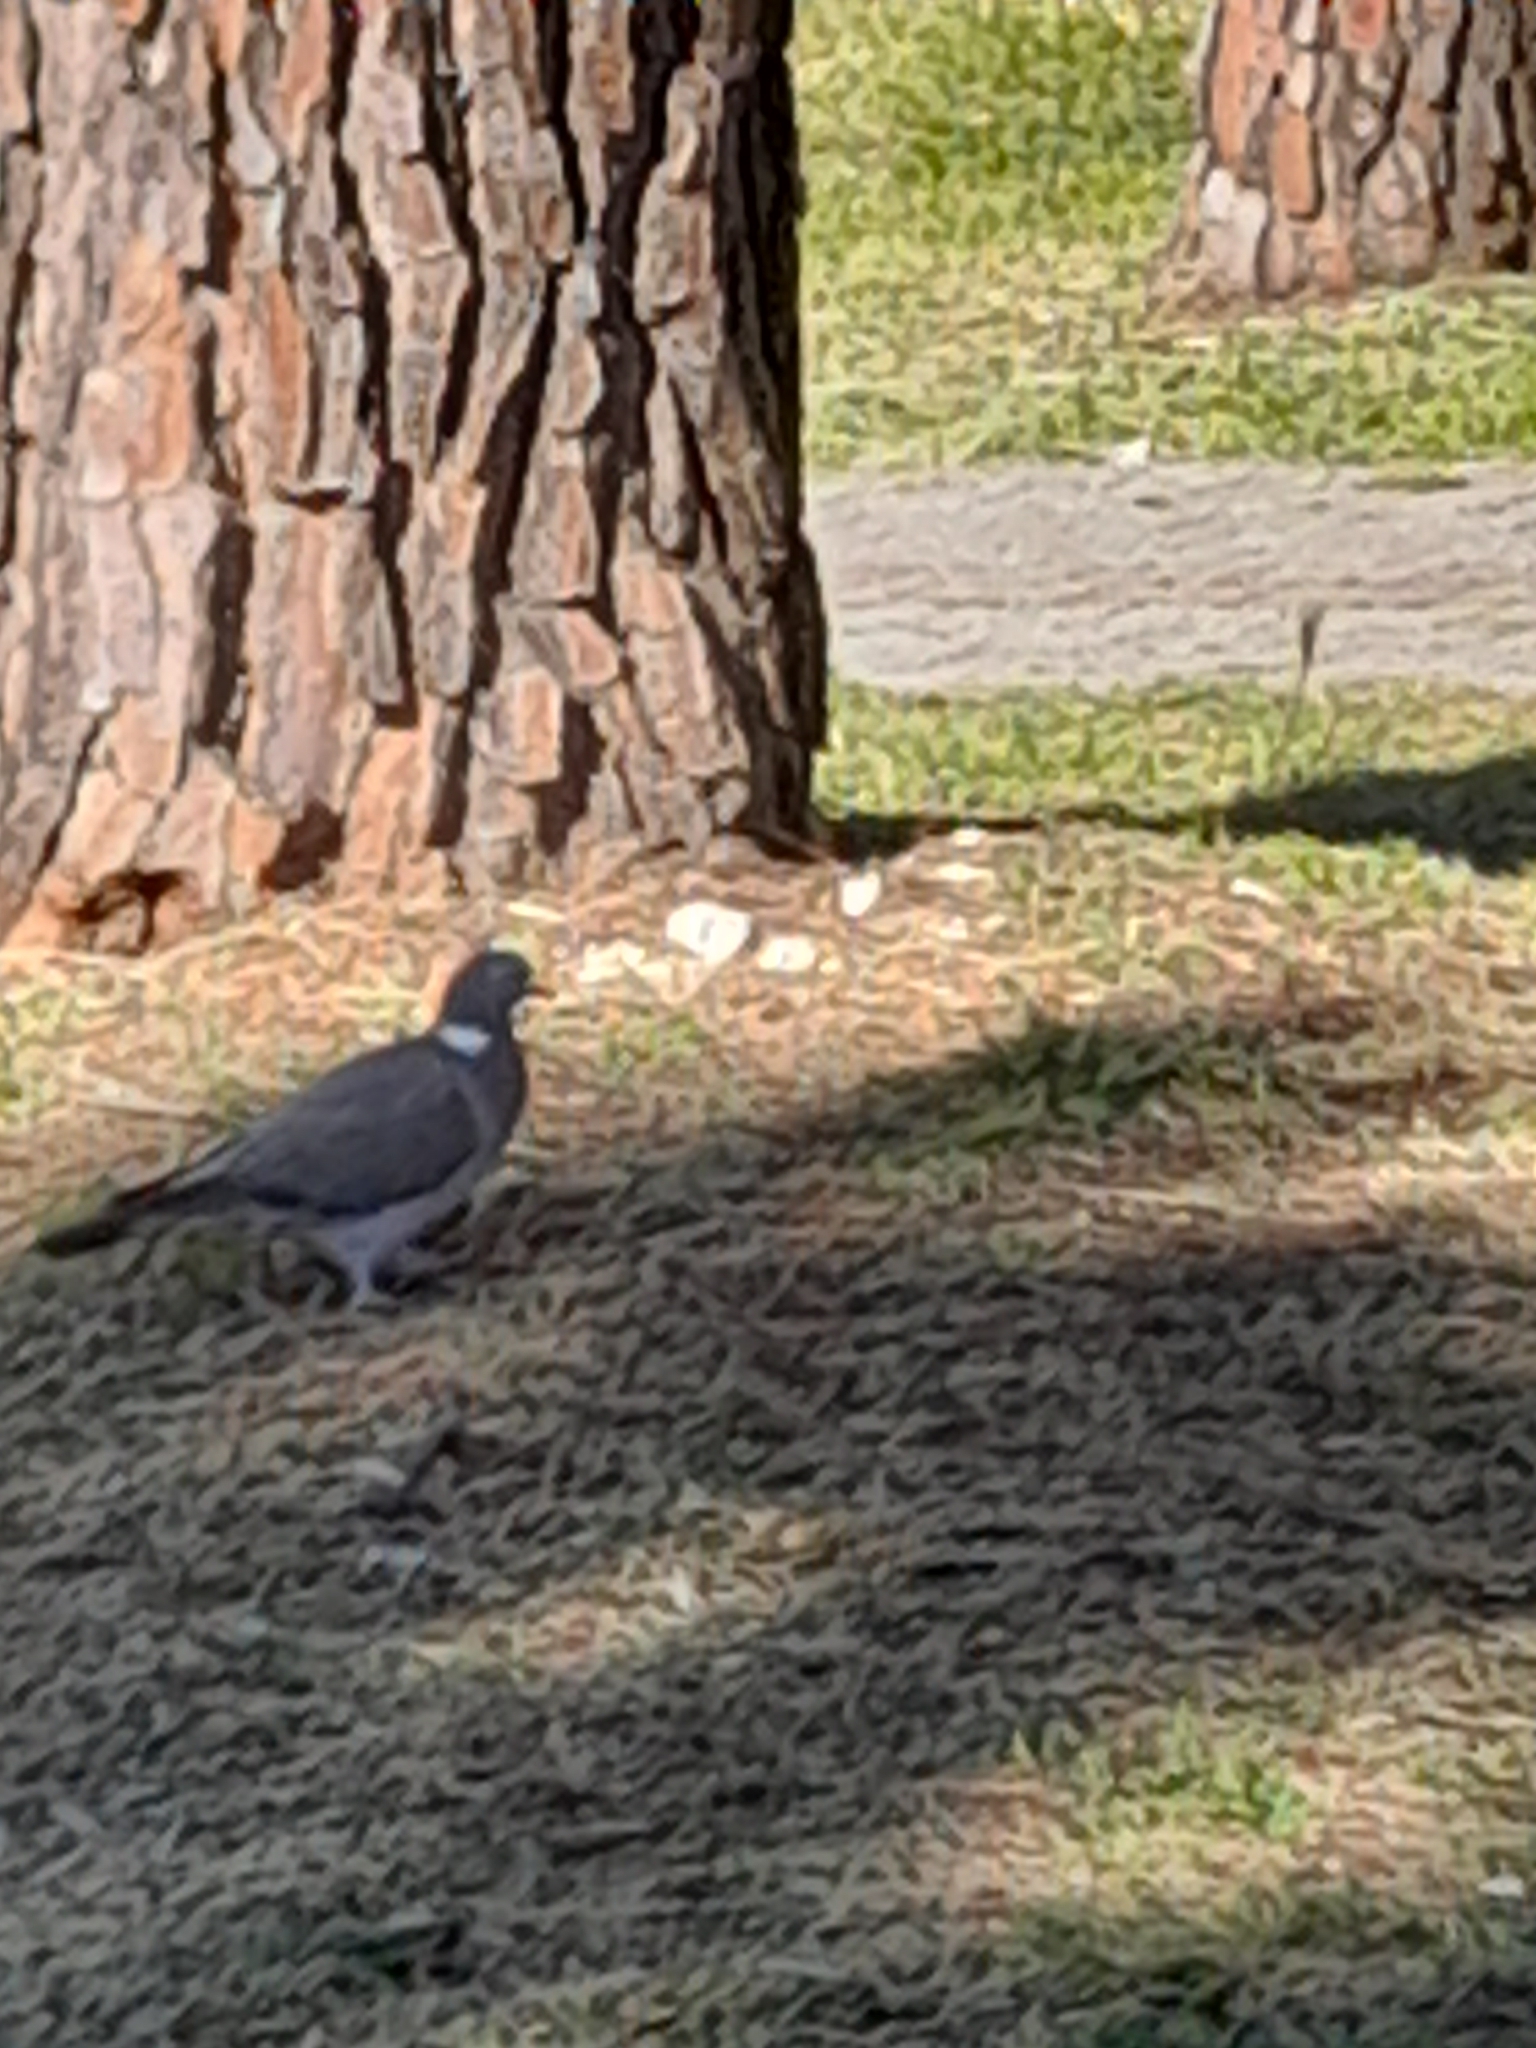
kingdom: Animalia
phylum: Chordata
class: Aves
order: Columbiformes
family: Columbidae
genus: Columba
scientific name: Columba palumbus
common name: Common wood pigeon
